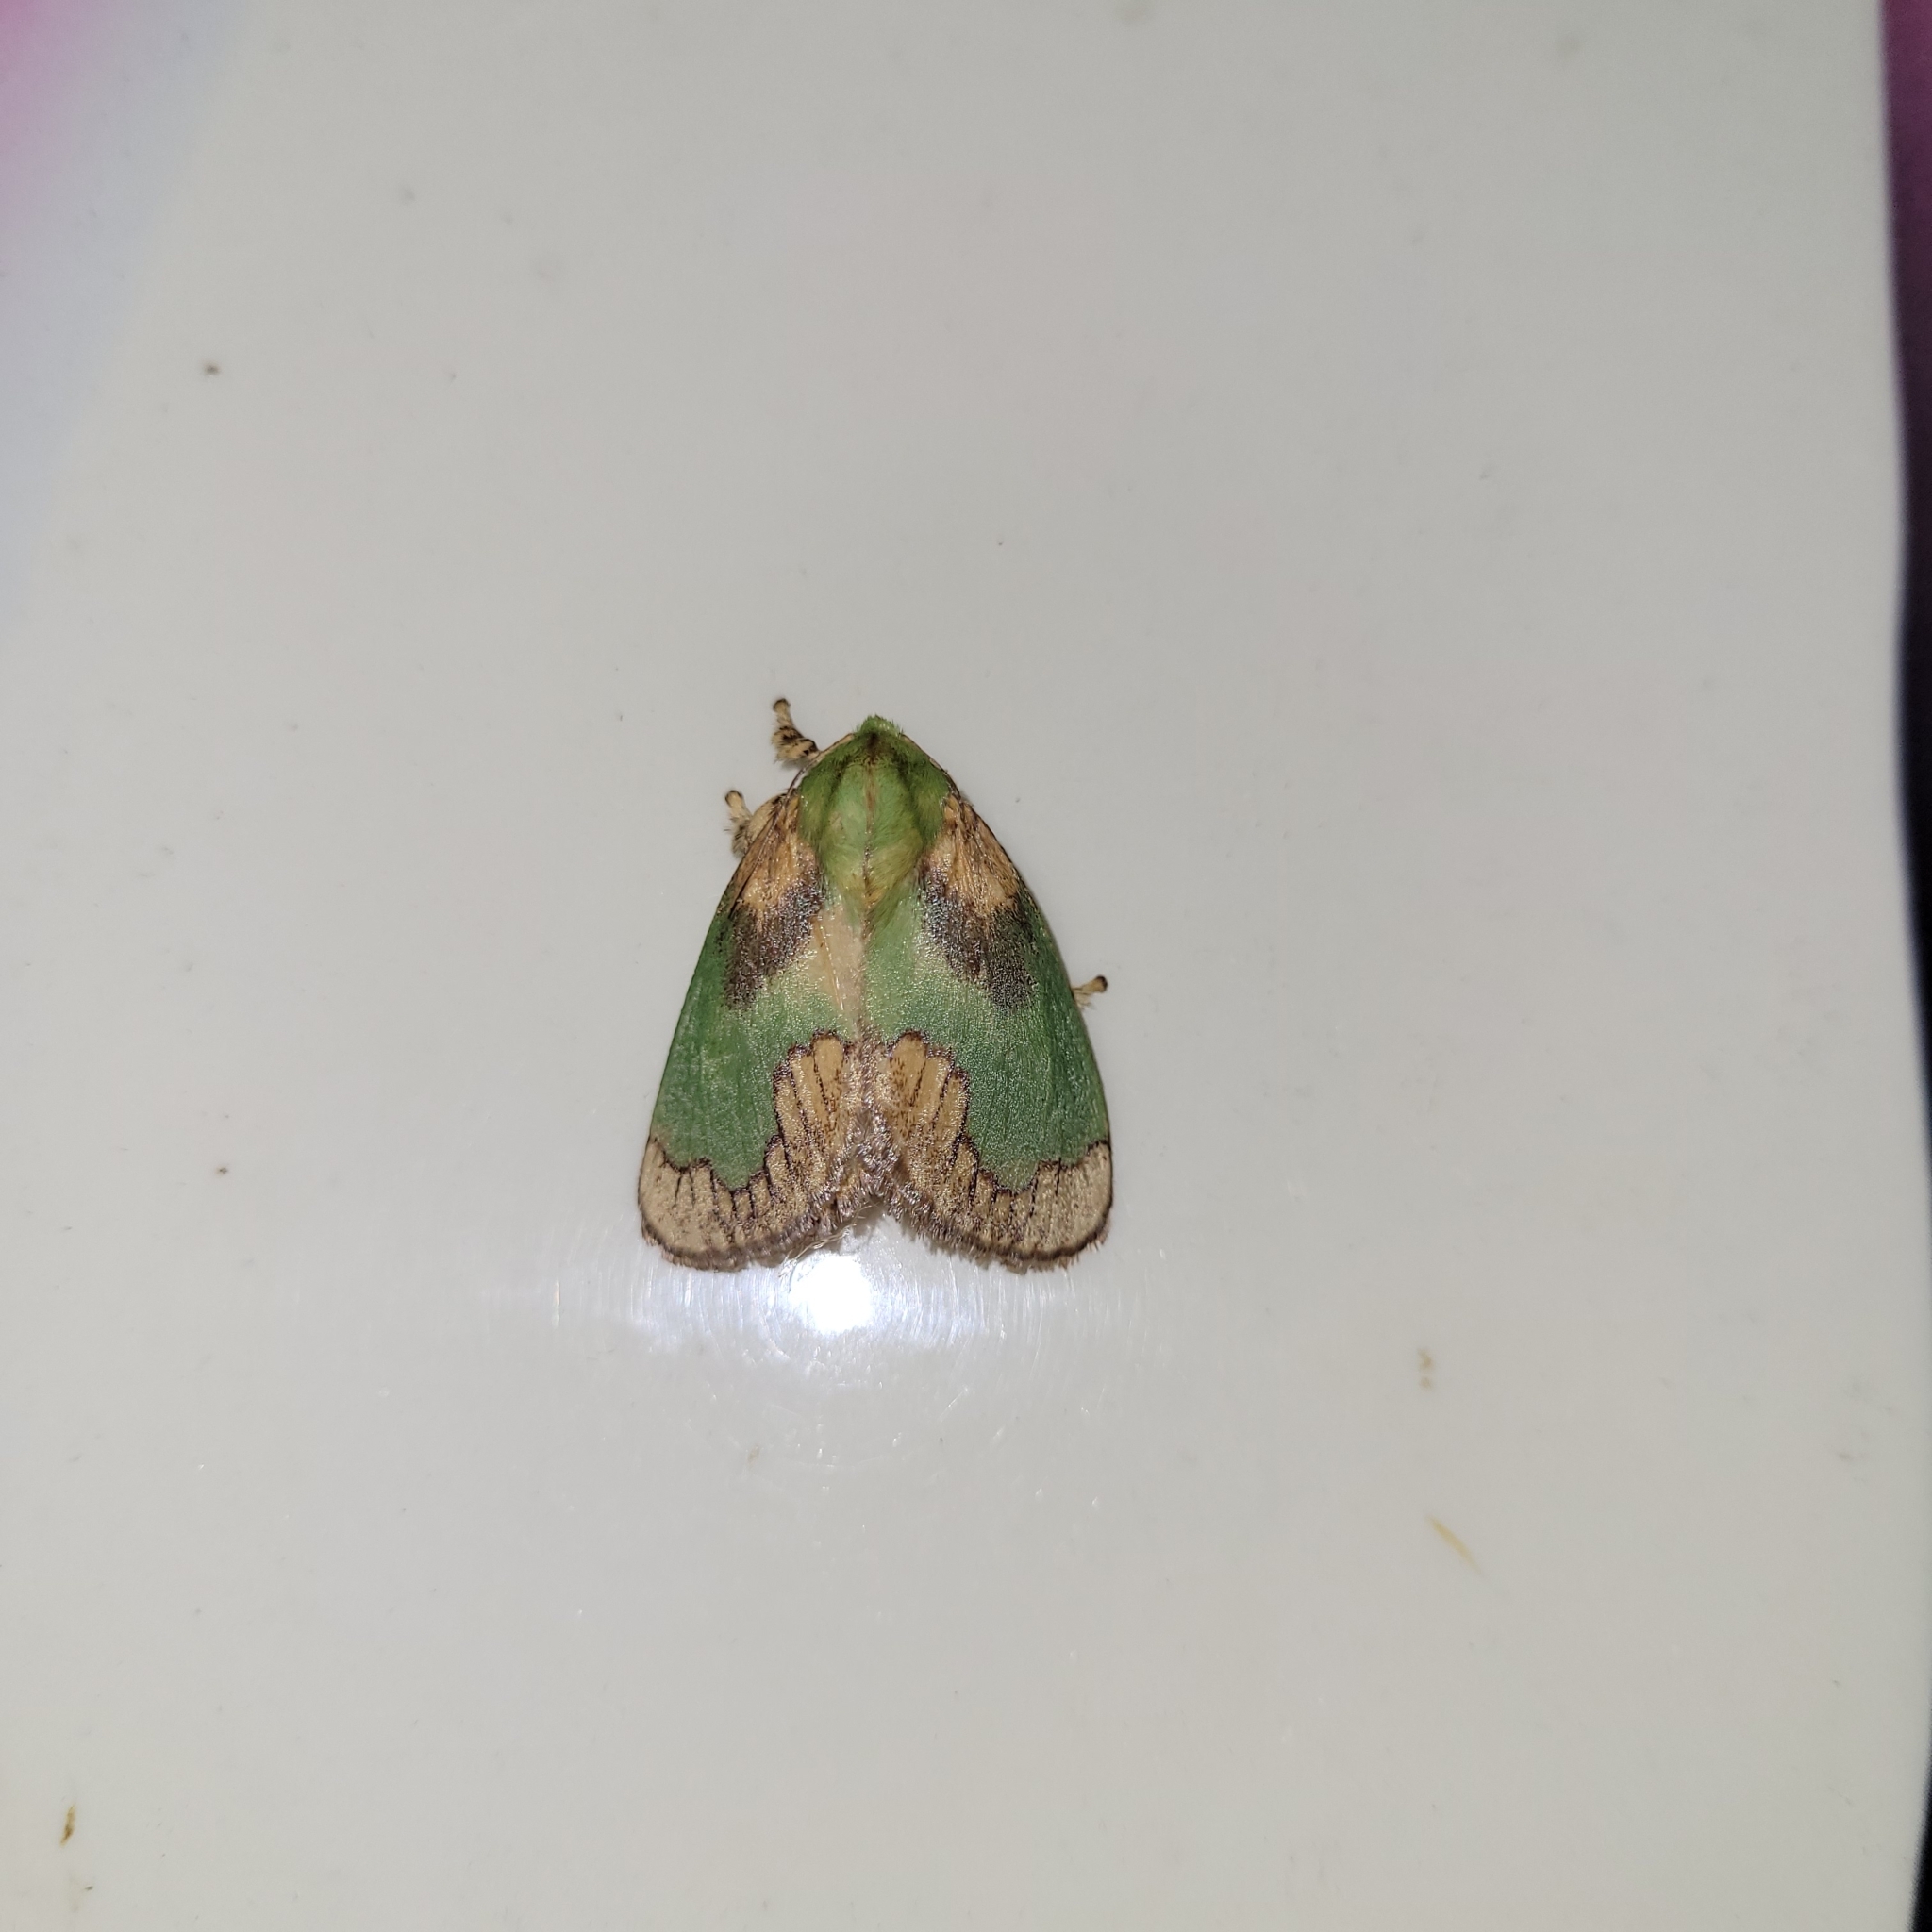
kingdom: Animalia
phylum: Arthropoda
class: Insecta
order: Lepidoptera
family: Limacodidae
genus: Parasa
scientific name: Parasa pastoralis
